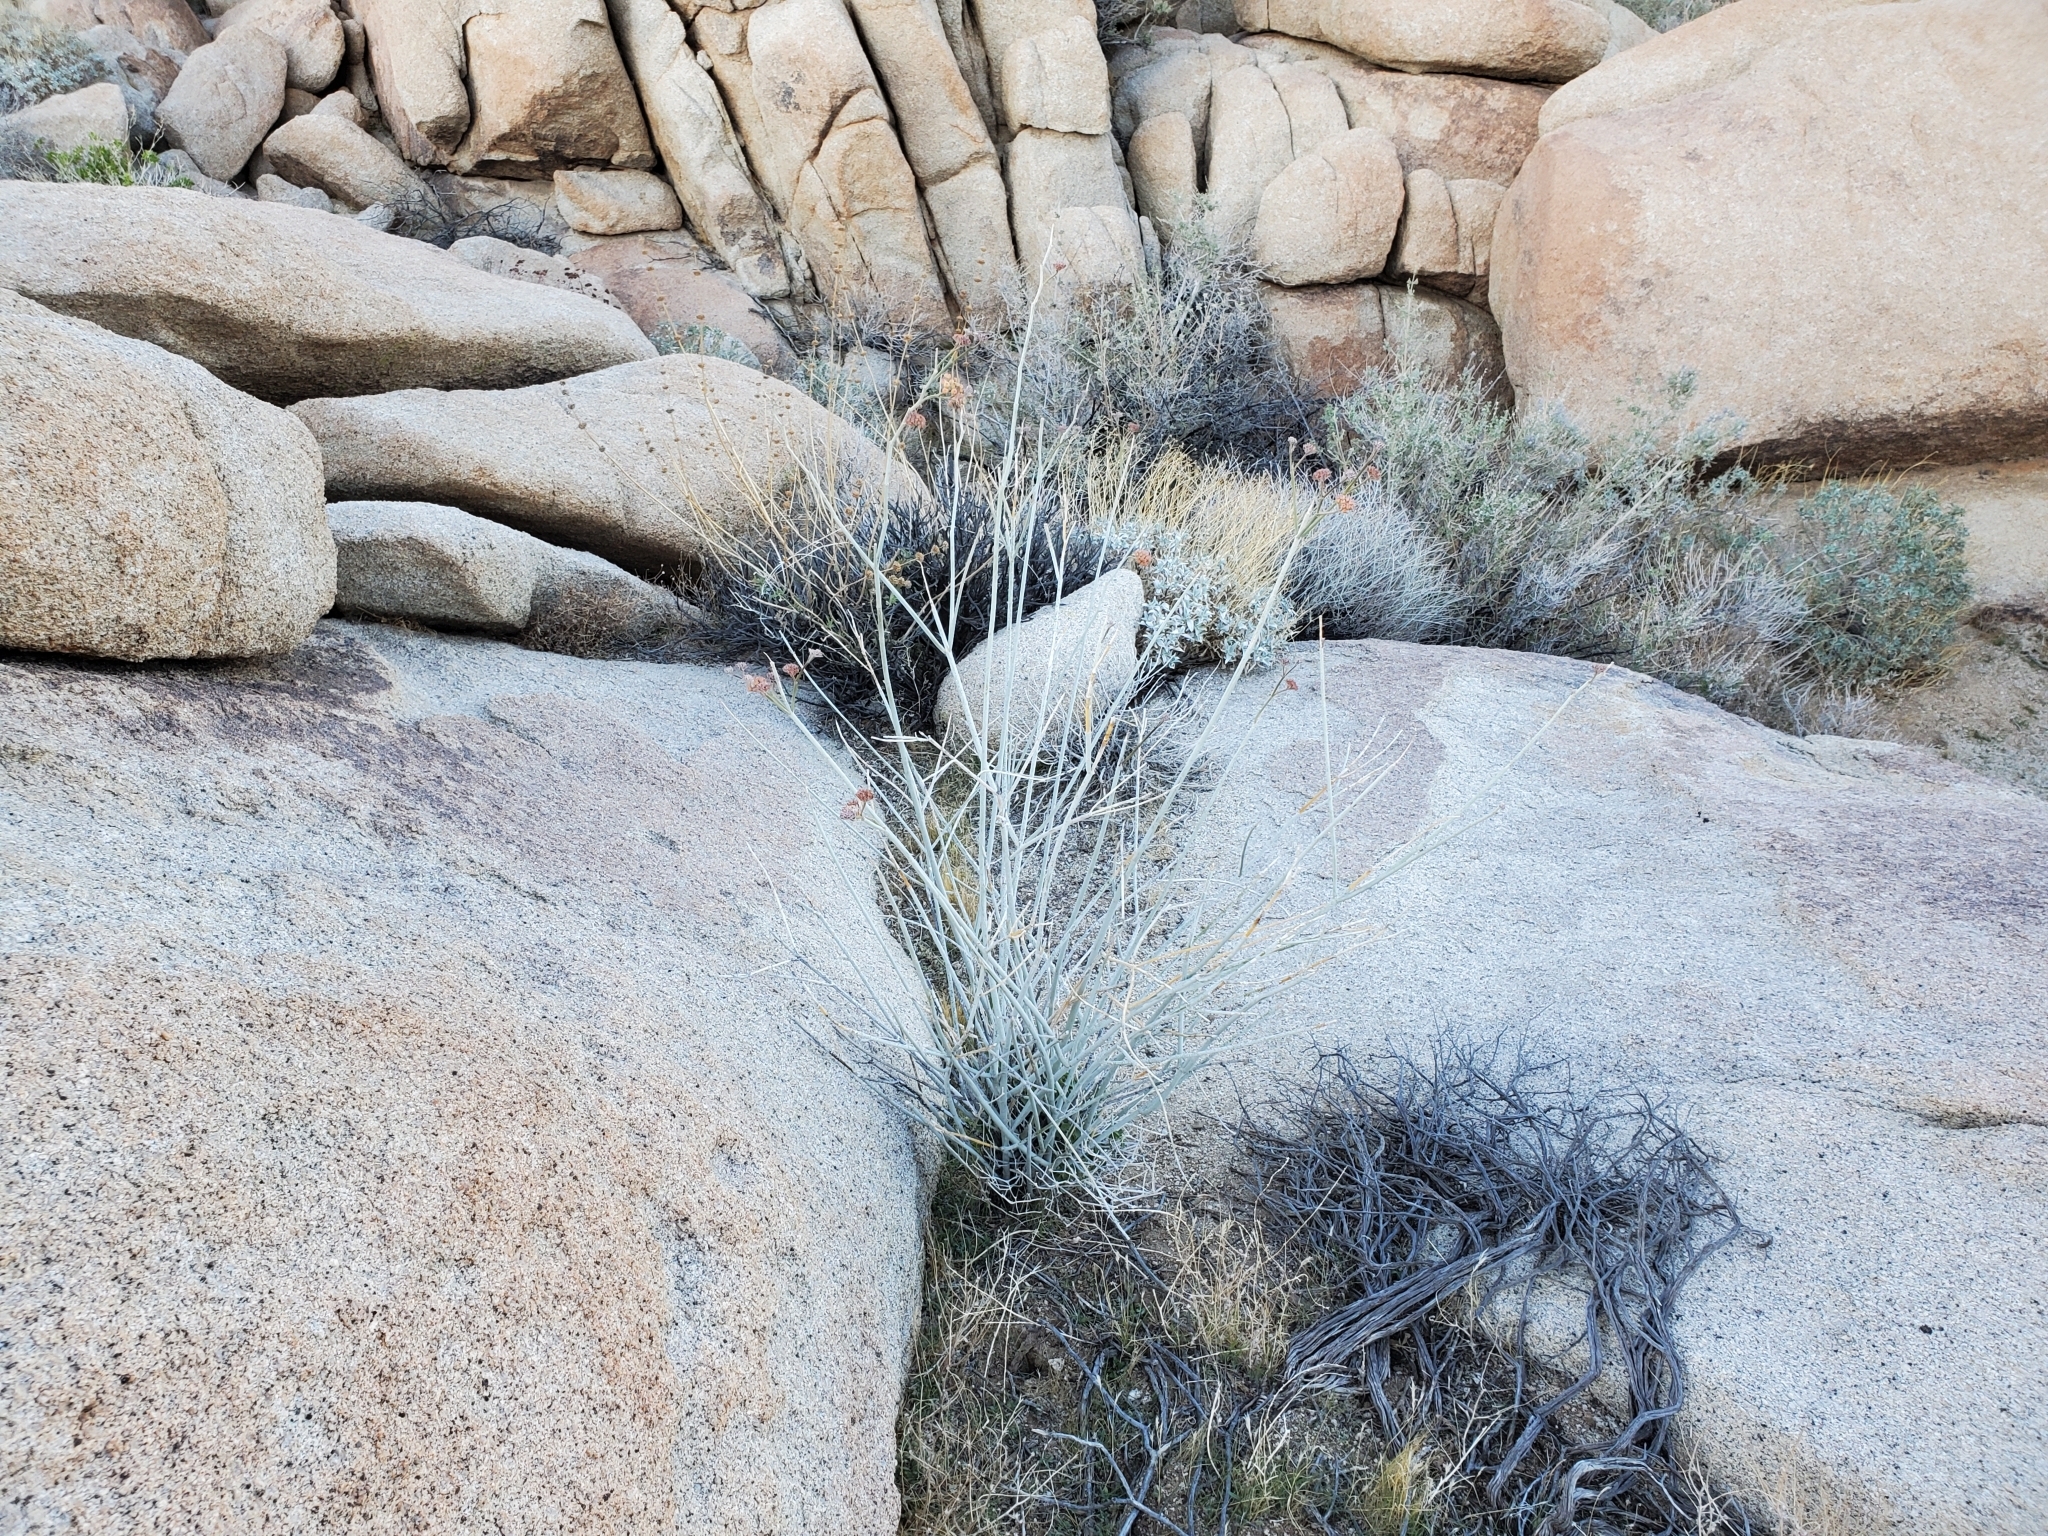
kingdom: Plantae
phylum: Tracheophyta
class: Magnoliopsida
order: Gentianales
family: Apocynaceae
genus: Asclepias
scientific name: Asclepias albicans
